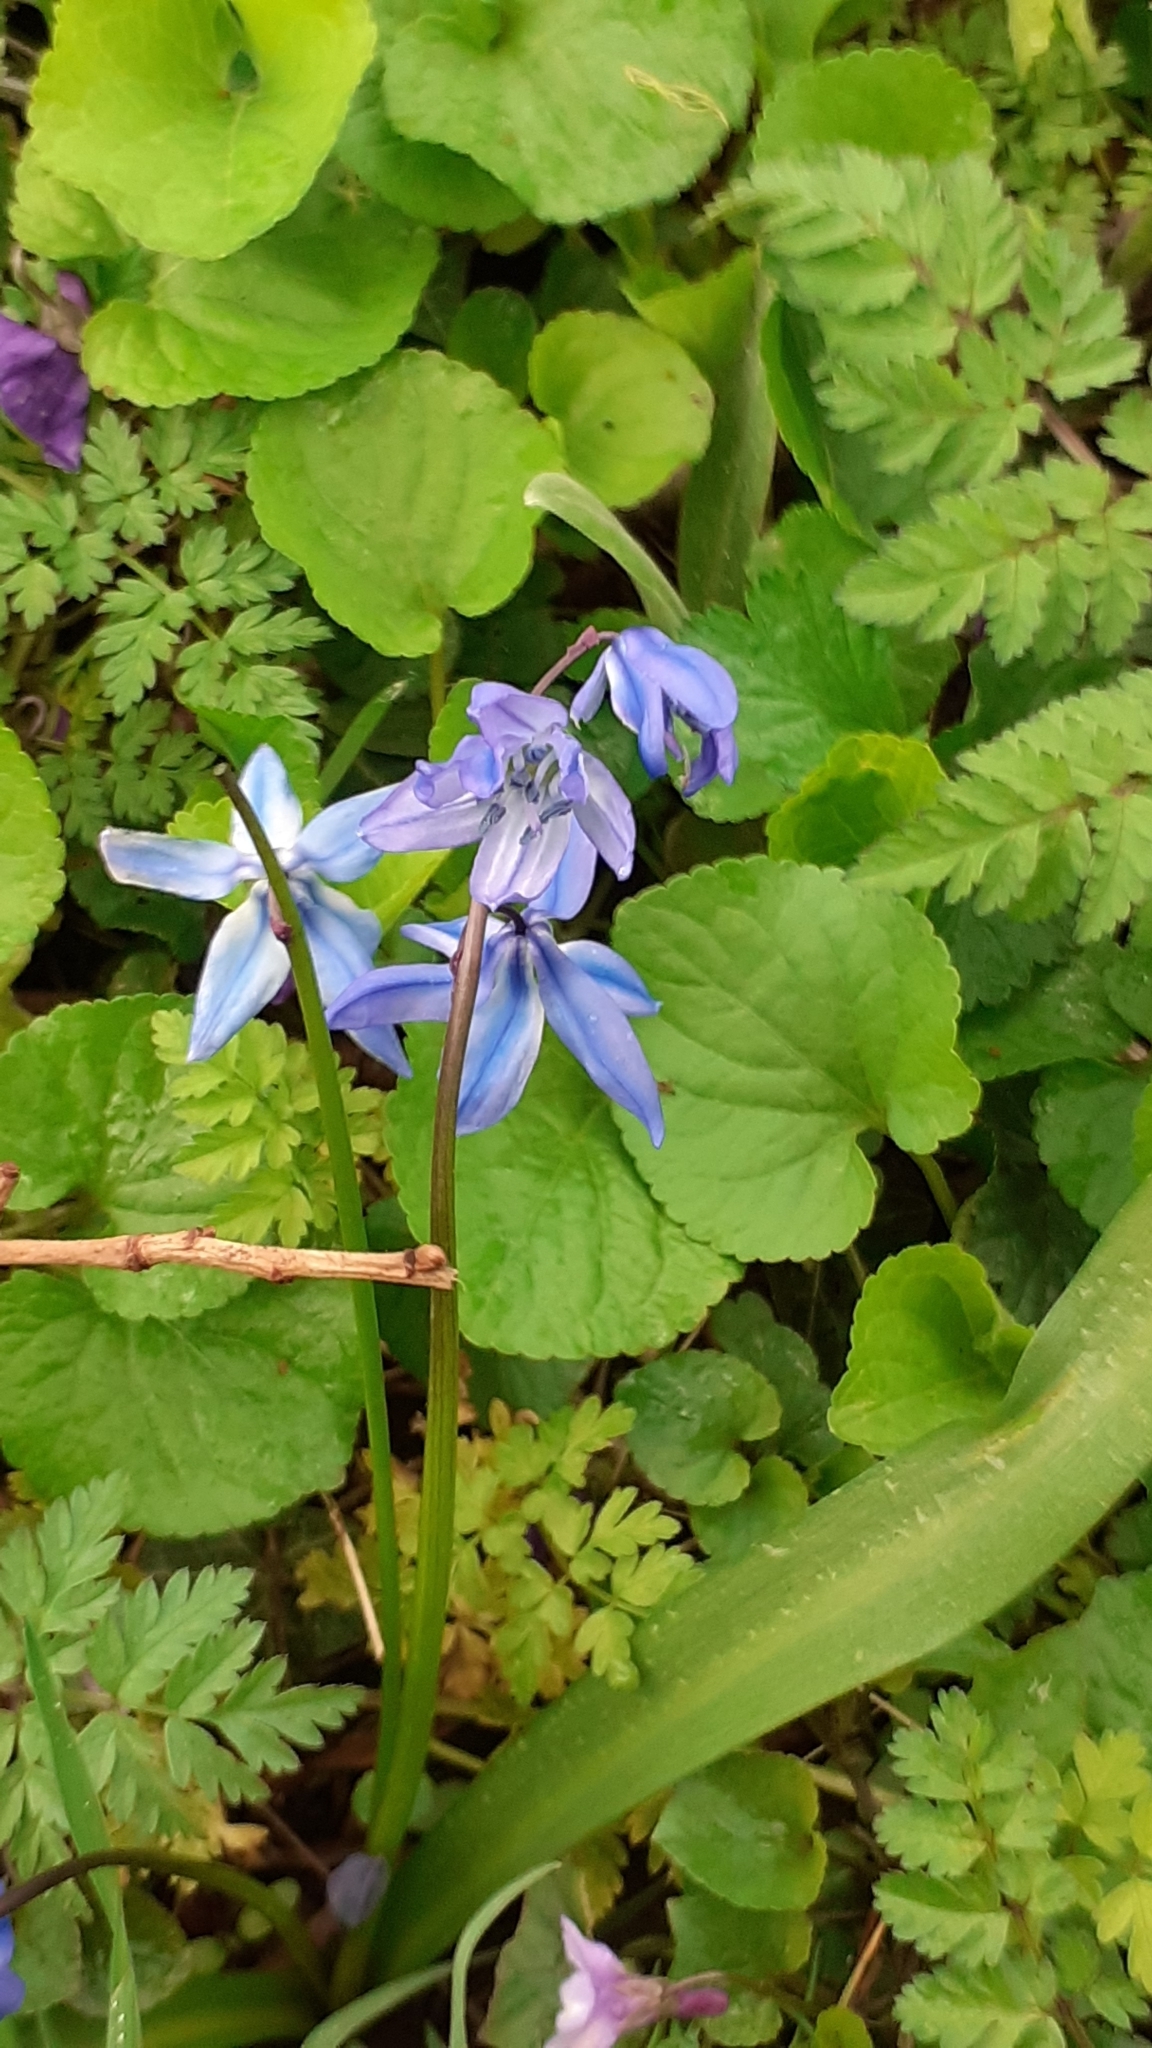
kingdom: Plantae
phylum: Tracheophyta
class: Liliopsida
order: Asparagales
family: Asparagaceae
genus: Scilla
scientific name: Scilla siberica
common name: Siberian squill
